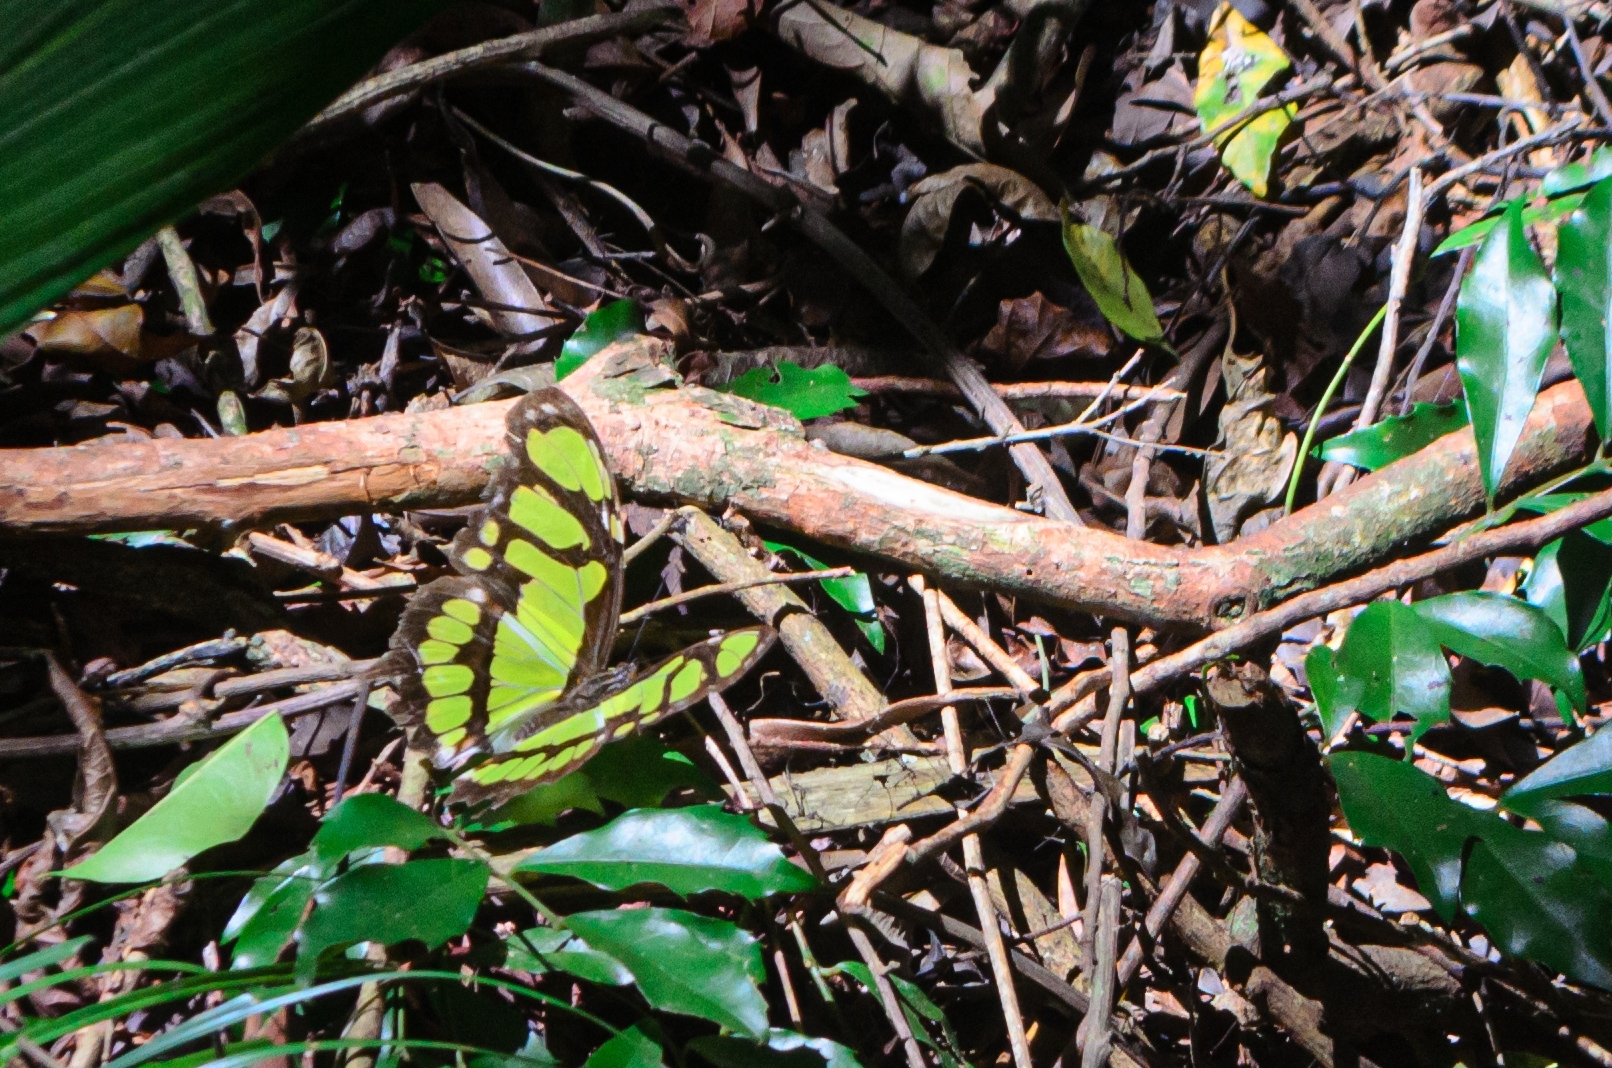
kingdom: Animalia
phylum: Arthropoda
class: Insecta
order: Lepidoptera
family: Nymphalidae
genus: Siproeta
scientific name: Siproeta stelenes
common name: Malachite
